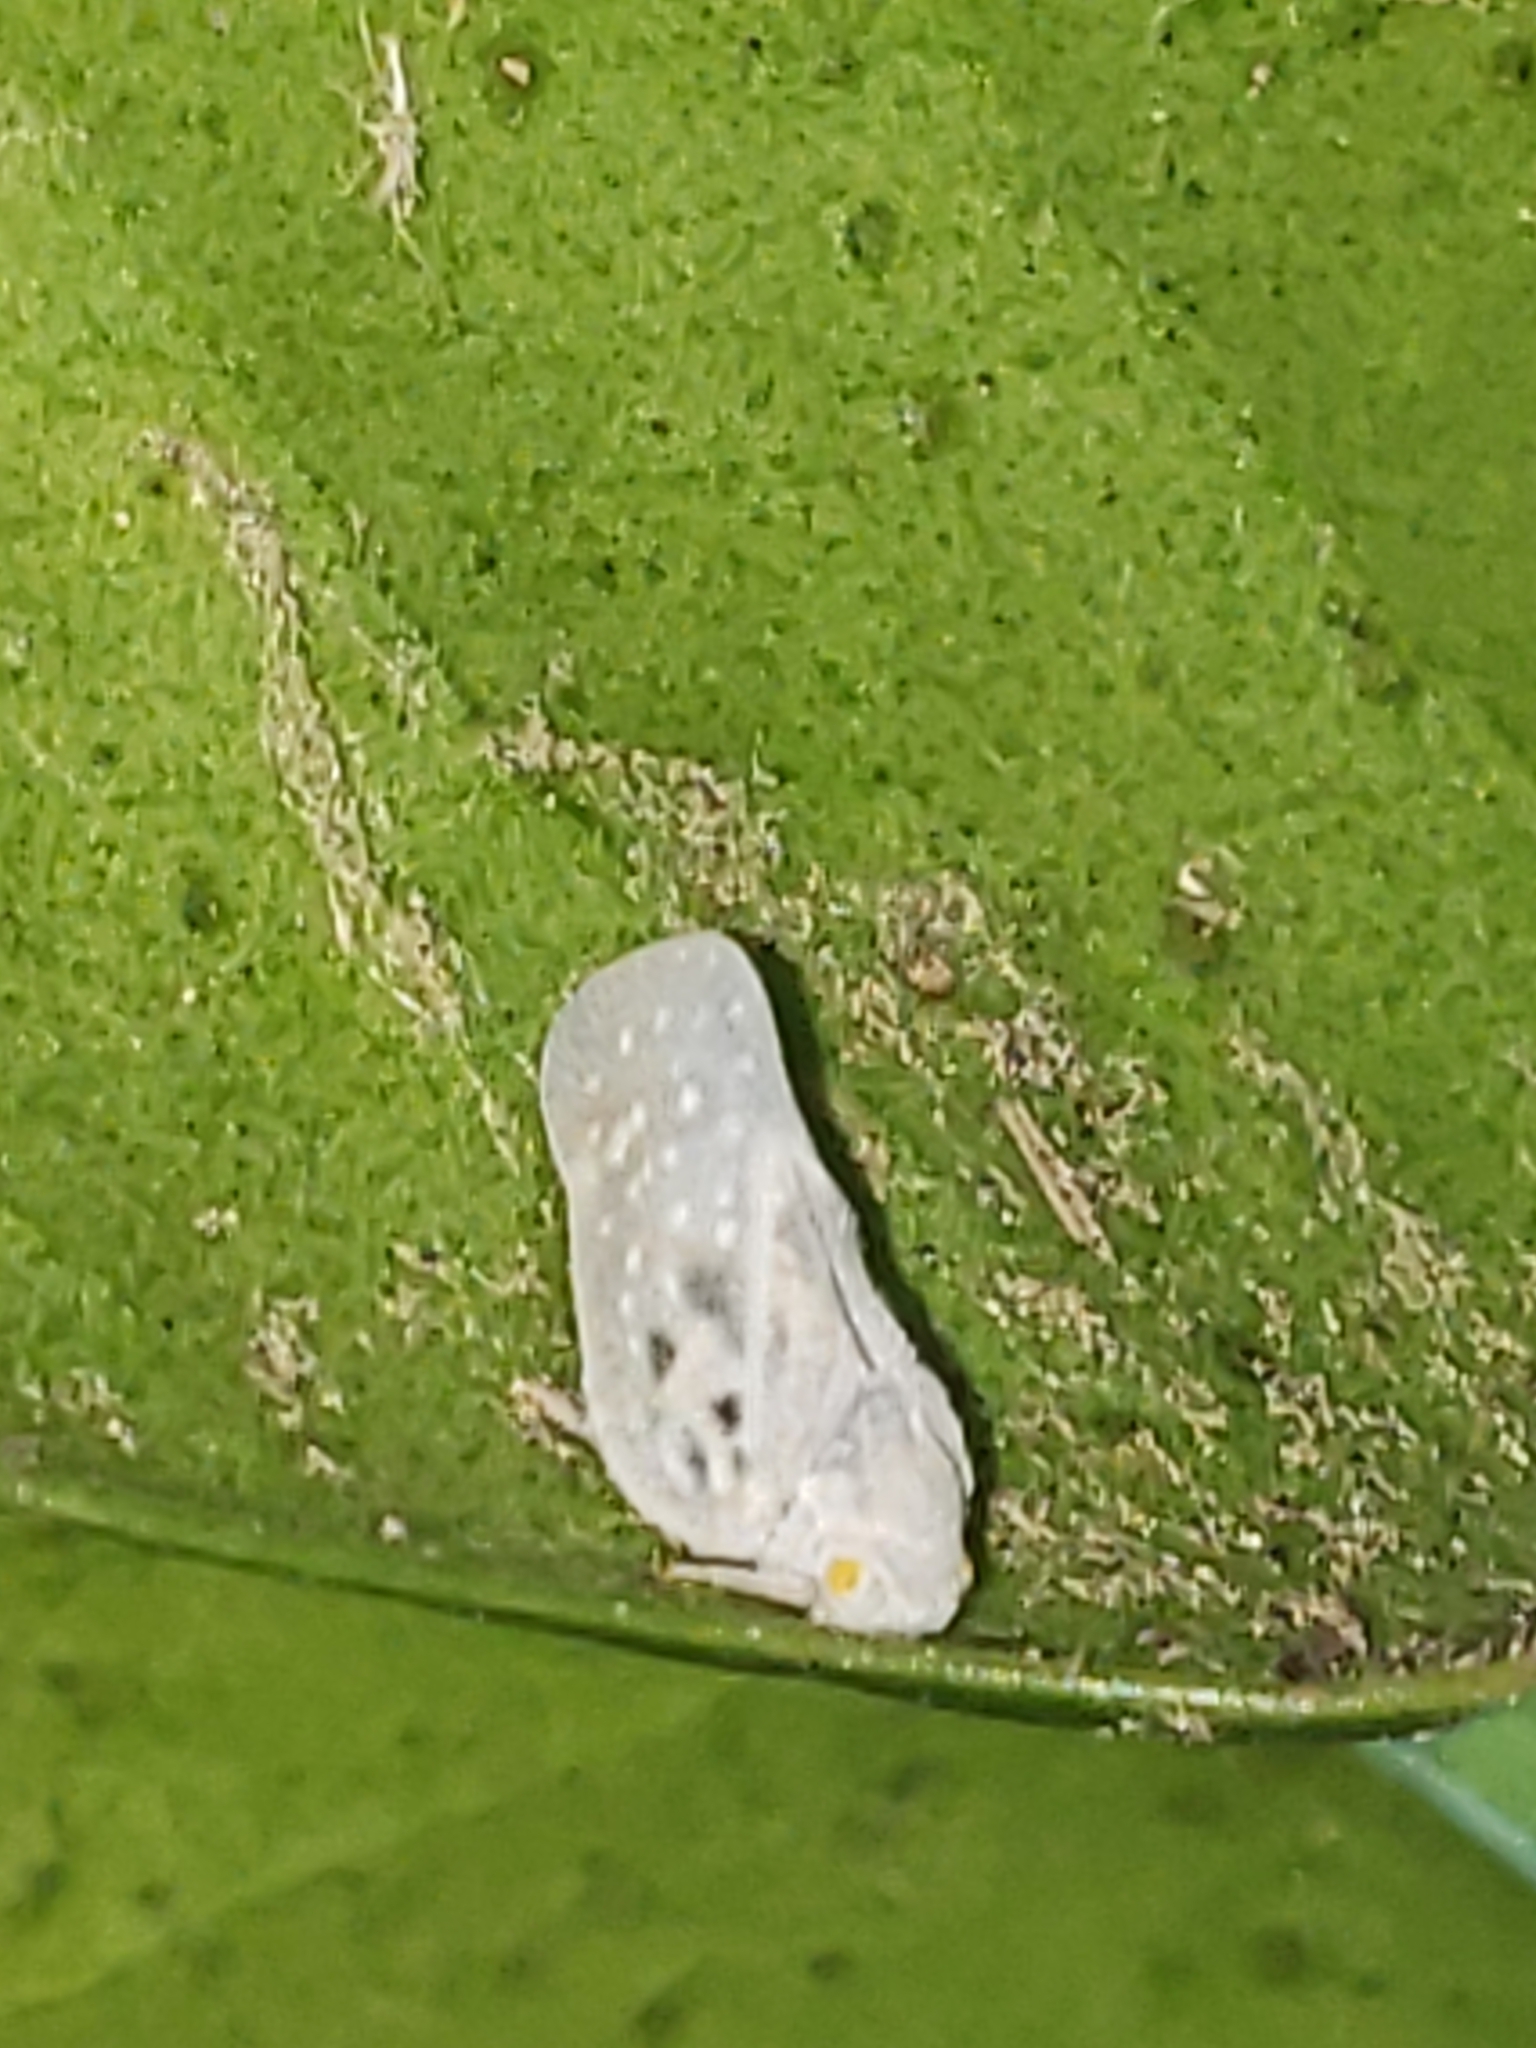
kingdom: Animalia
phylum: Arthropoda
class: Insecta
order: Hemiptera
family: Flatidae
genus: Metcalfa
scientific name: Metcalfa pruinosa
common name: Citrus flatid planthopper
